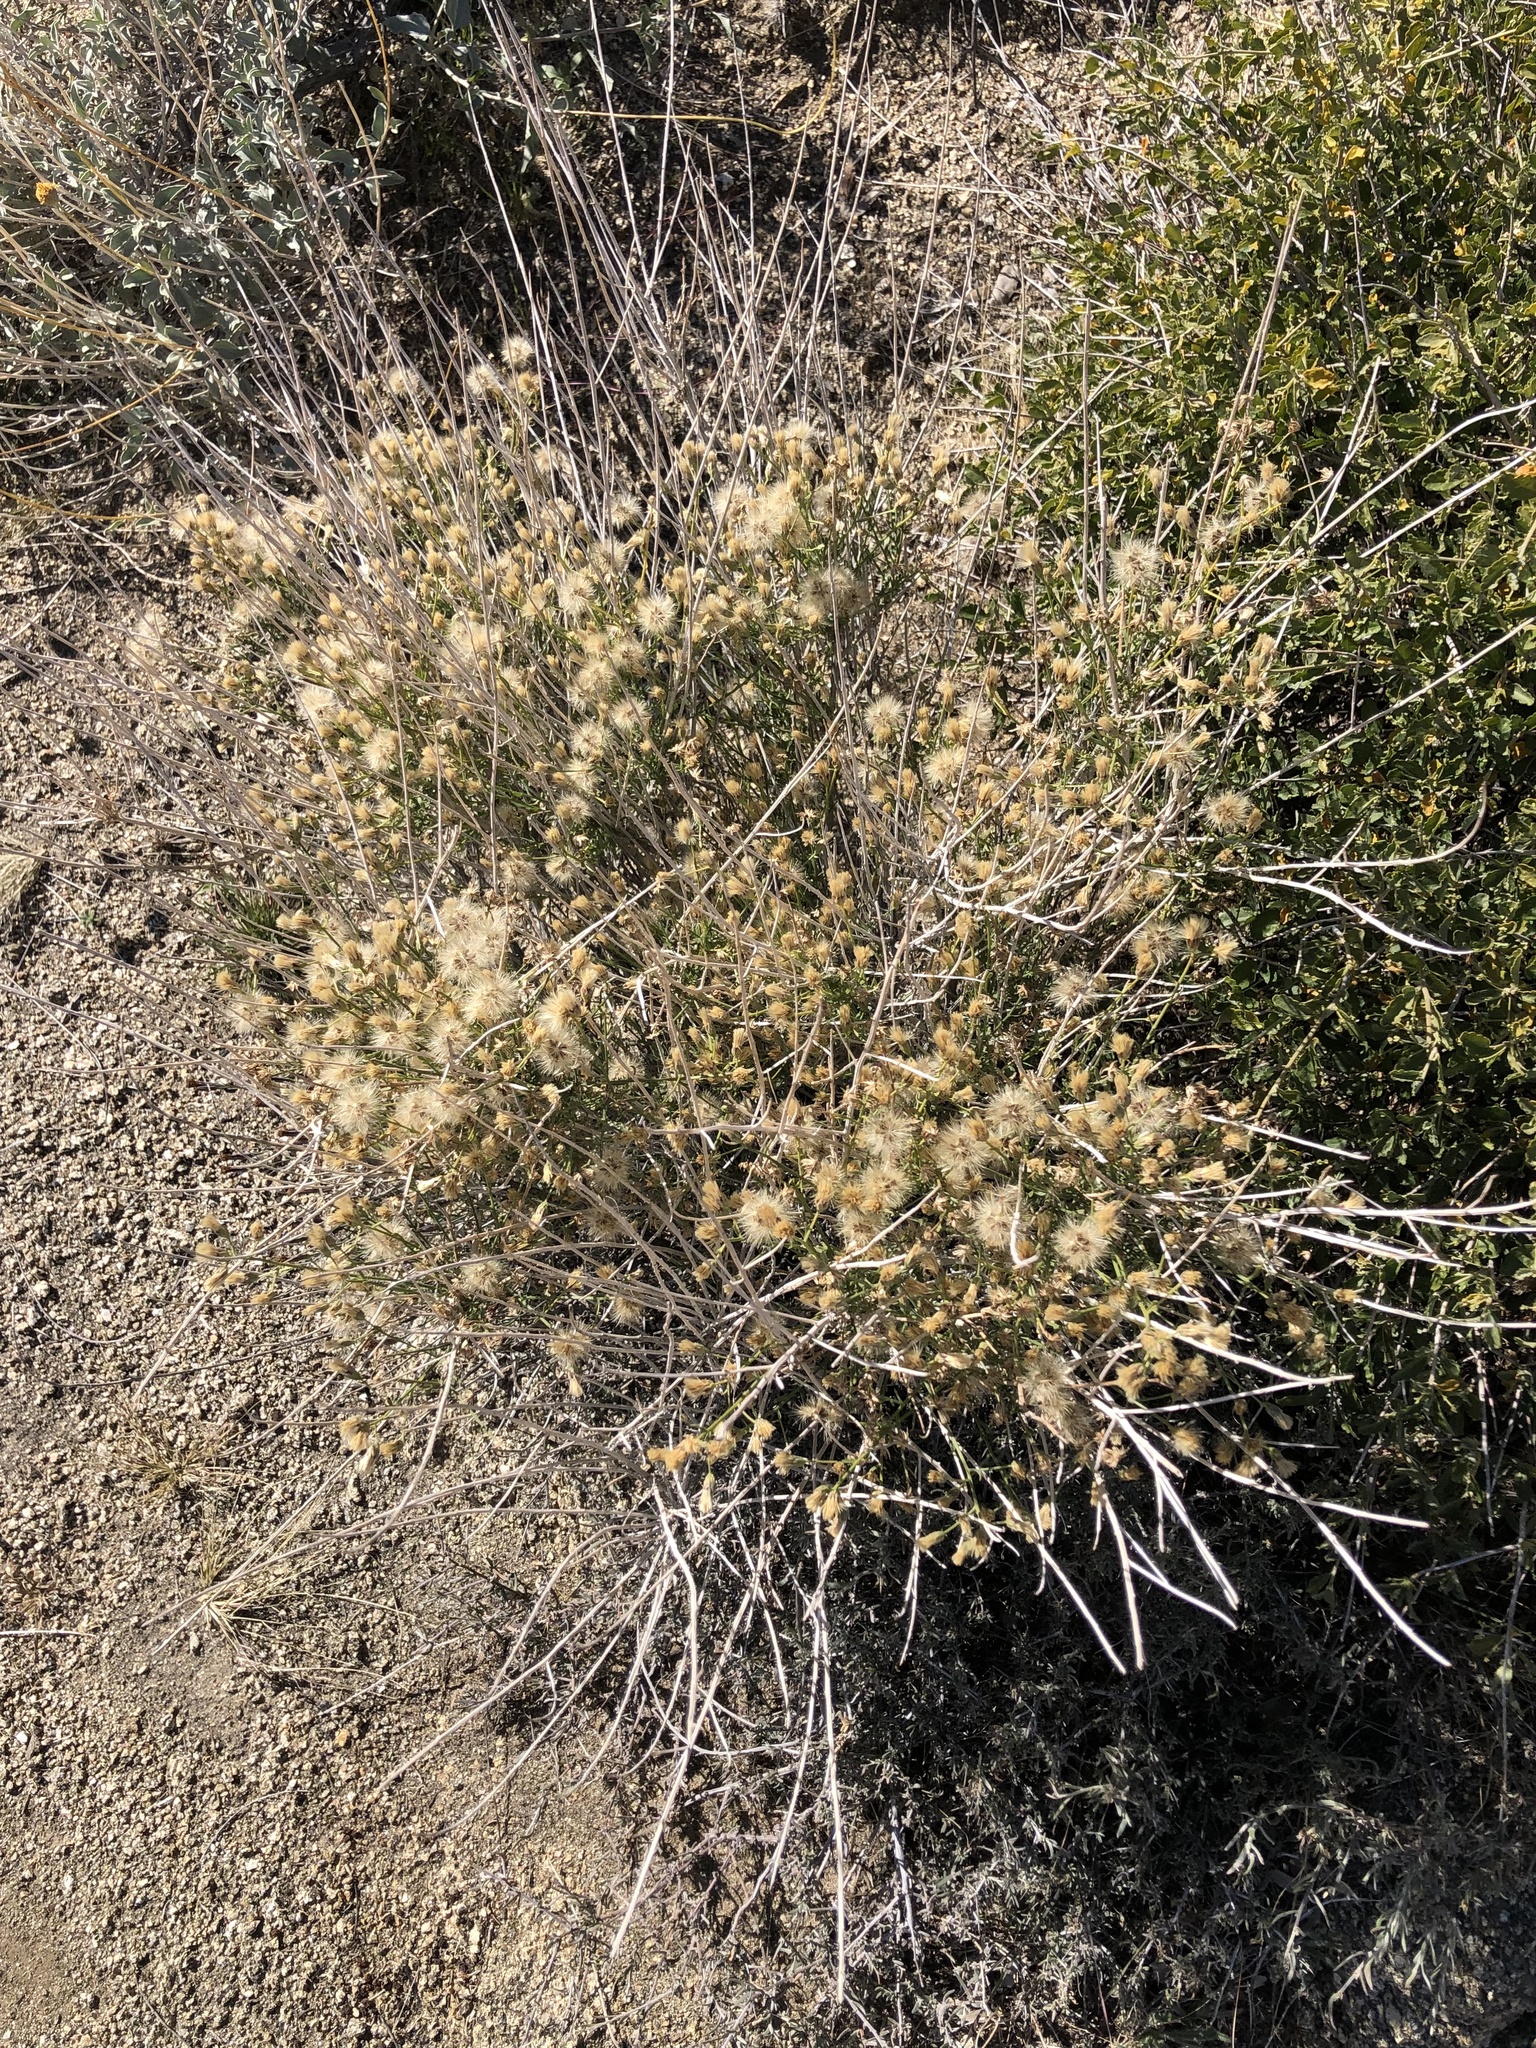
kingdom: Plantae
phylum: Tracheophyta
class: Magnoliopsida
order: Asterales
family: Asteraceae
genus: Adenophyllum
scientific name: Adenophyllum porophylloides
